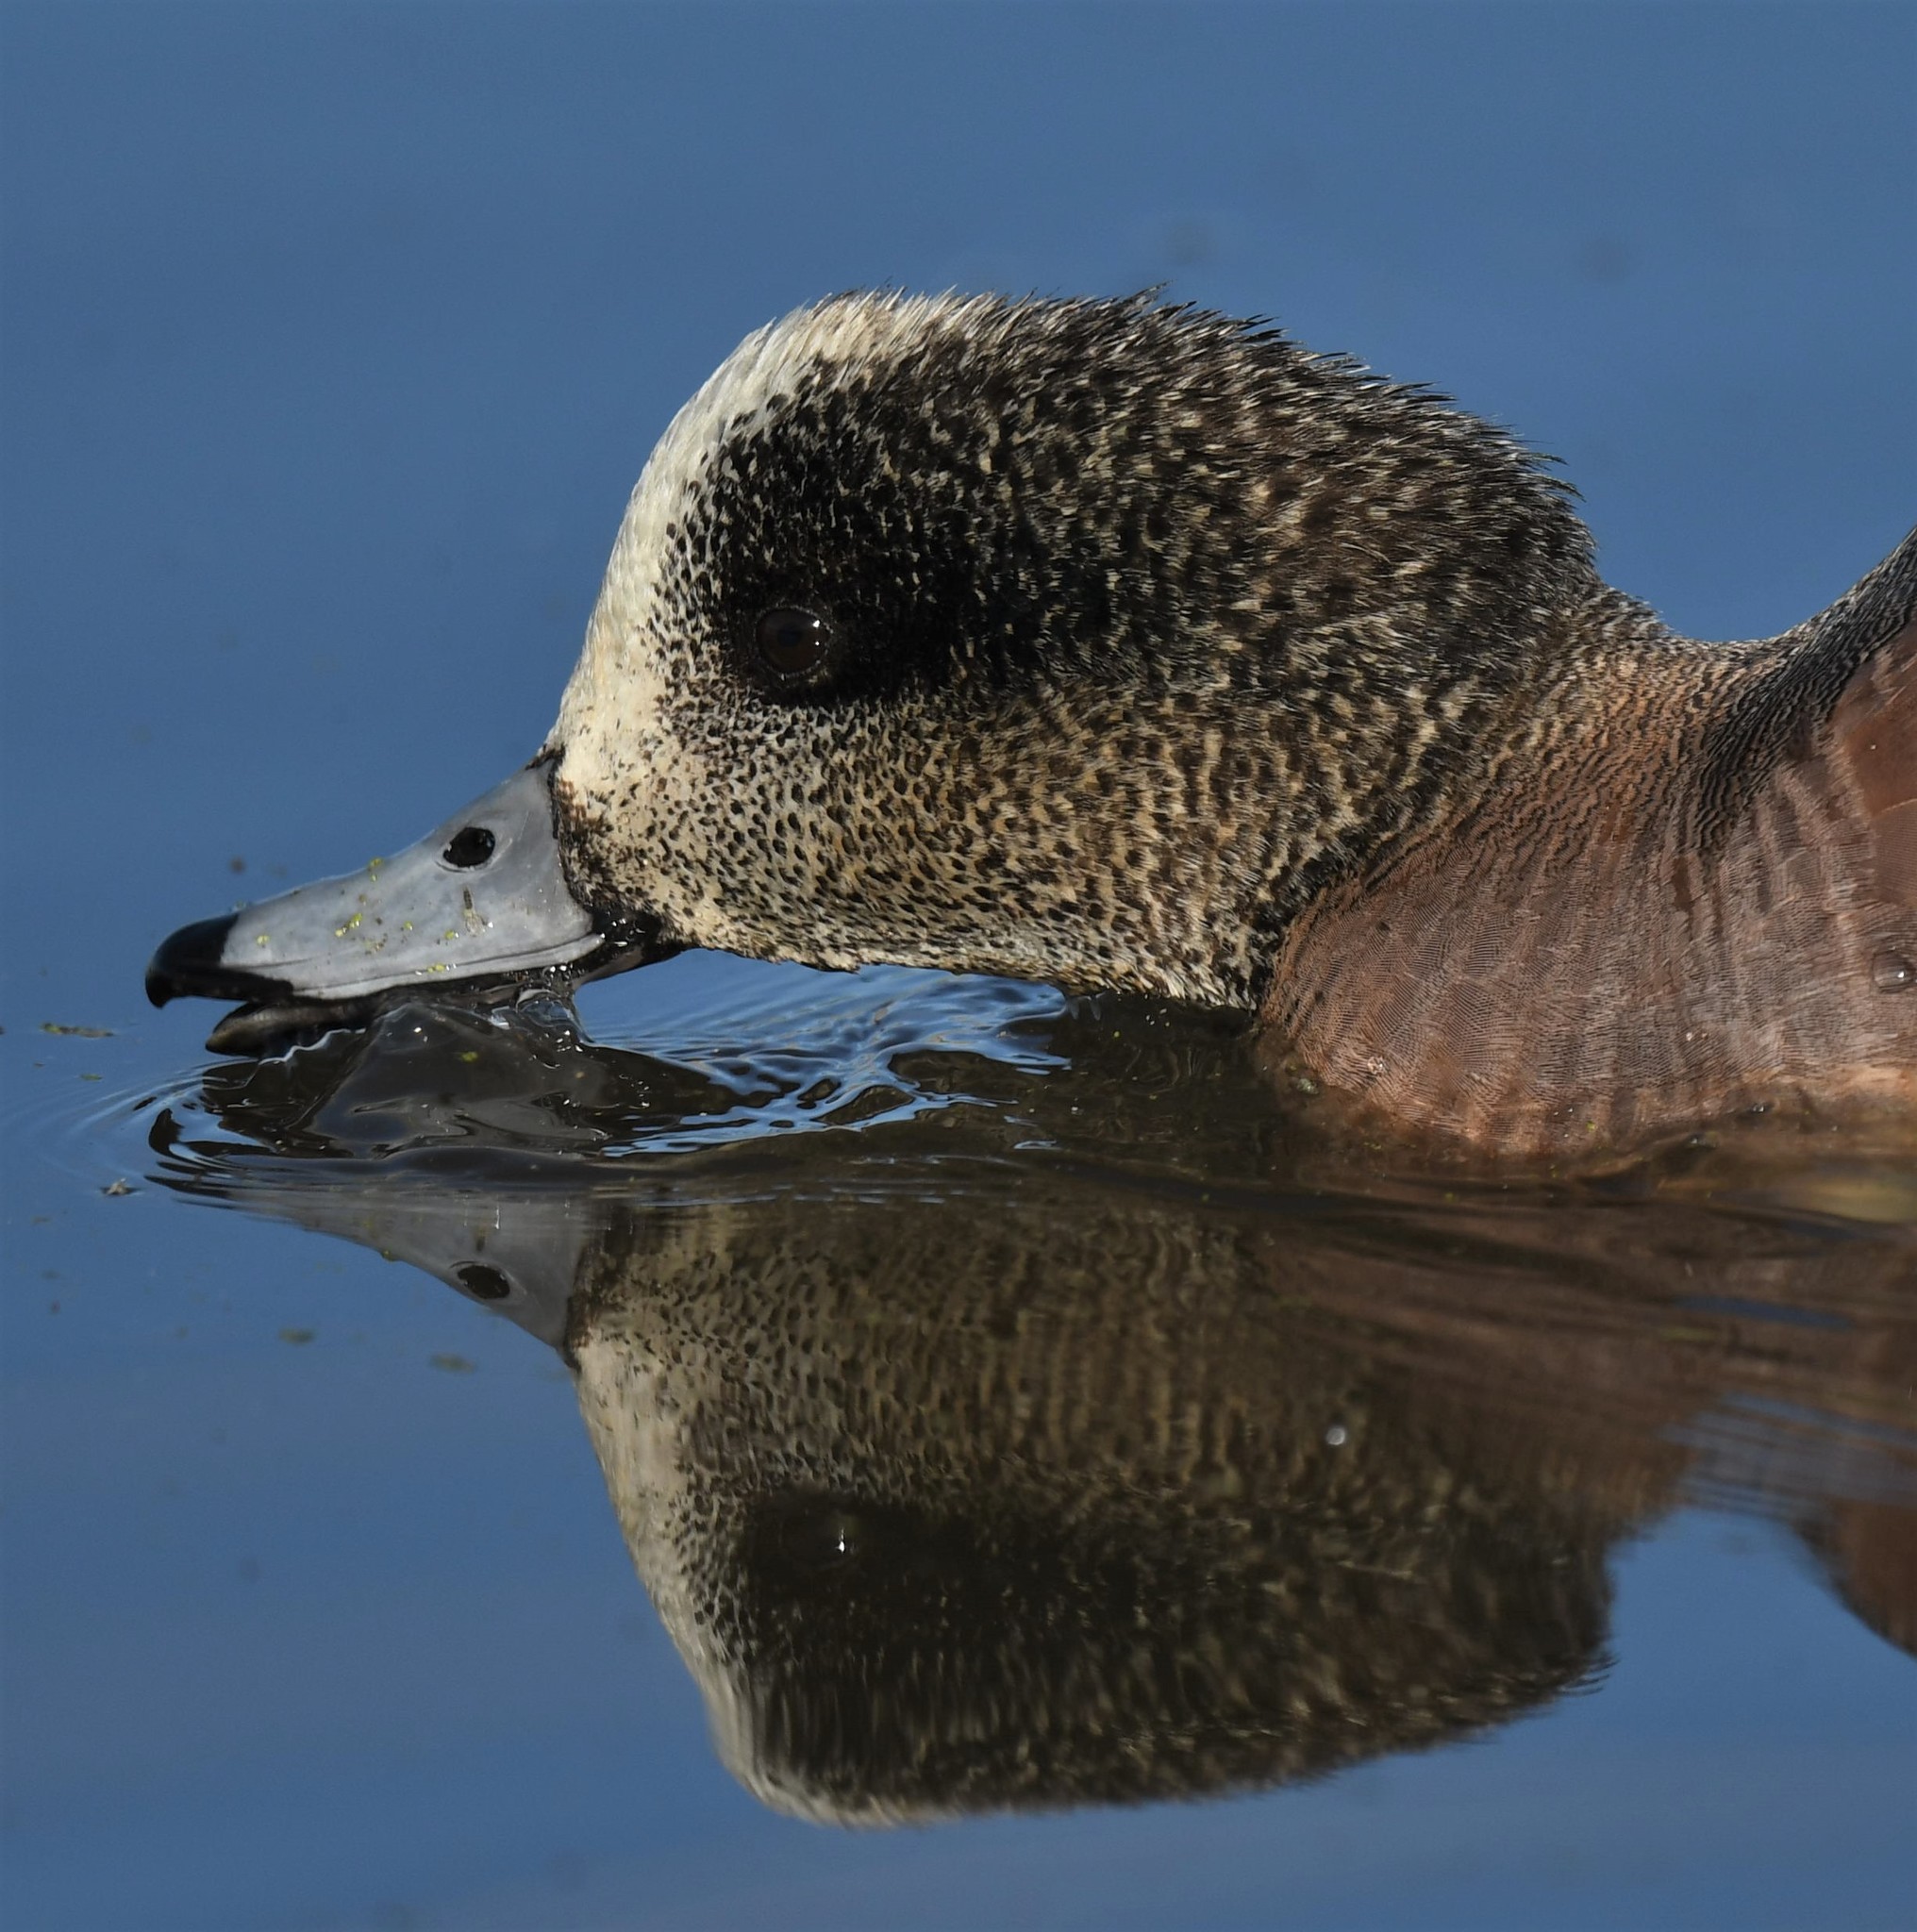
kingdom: Animalia
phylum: Chordata
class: Aves
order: Anseriformes
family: Anatidae
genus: Mareca
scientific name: Mareca americana
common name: American wigeon
